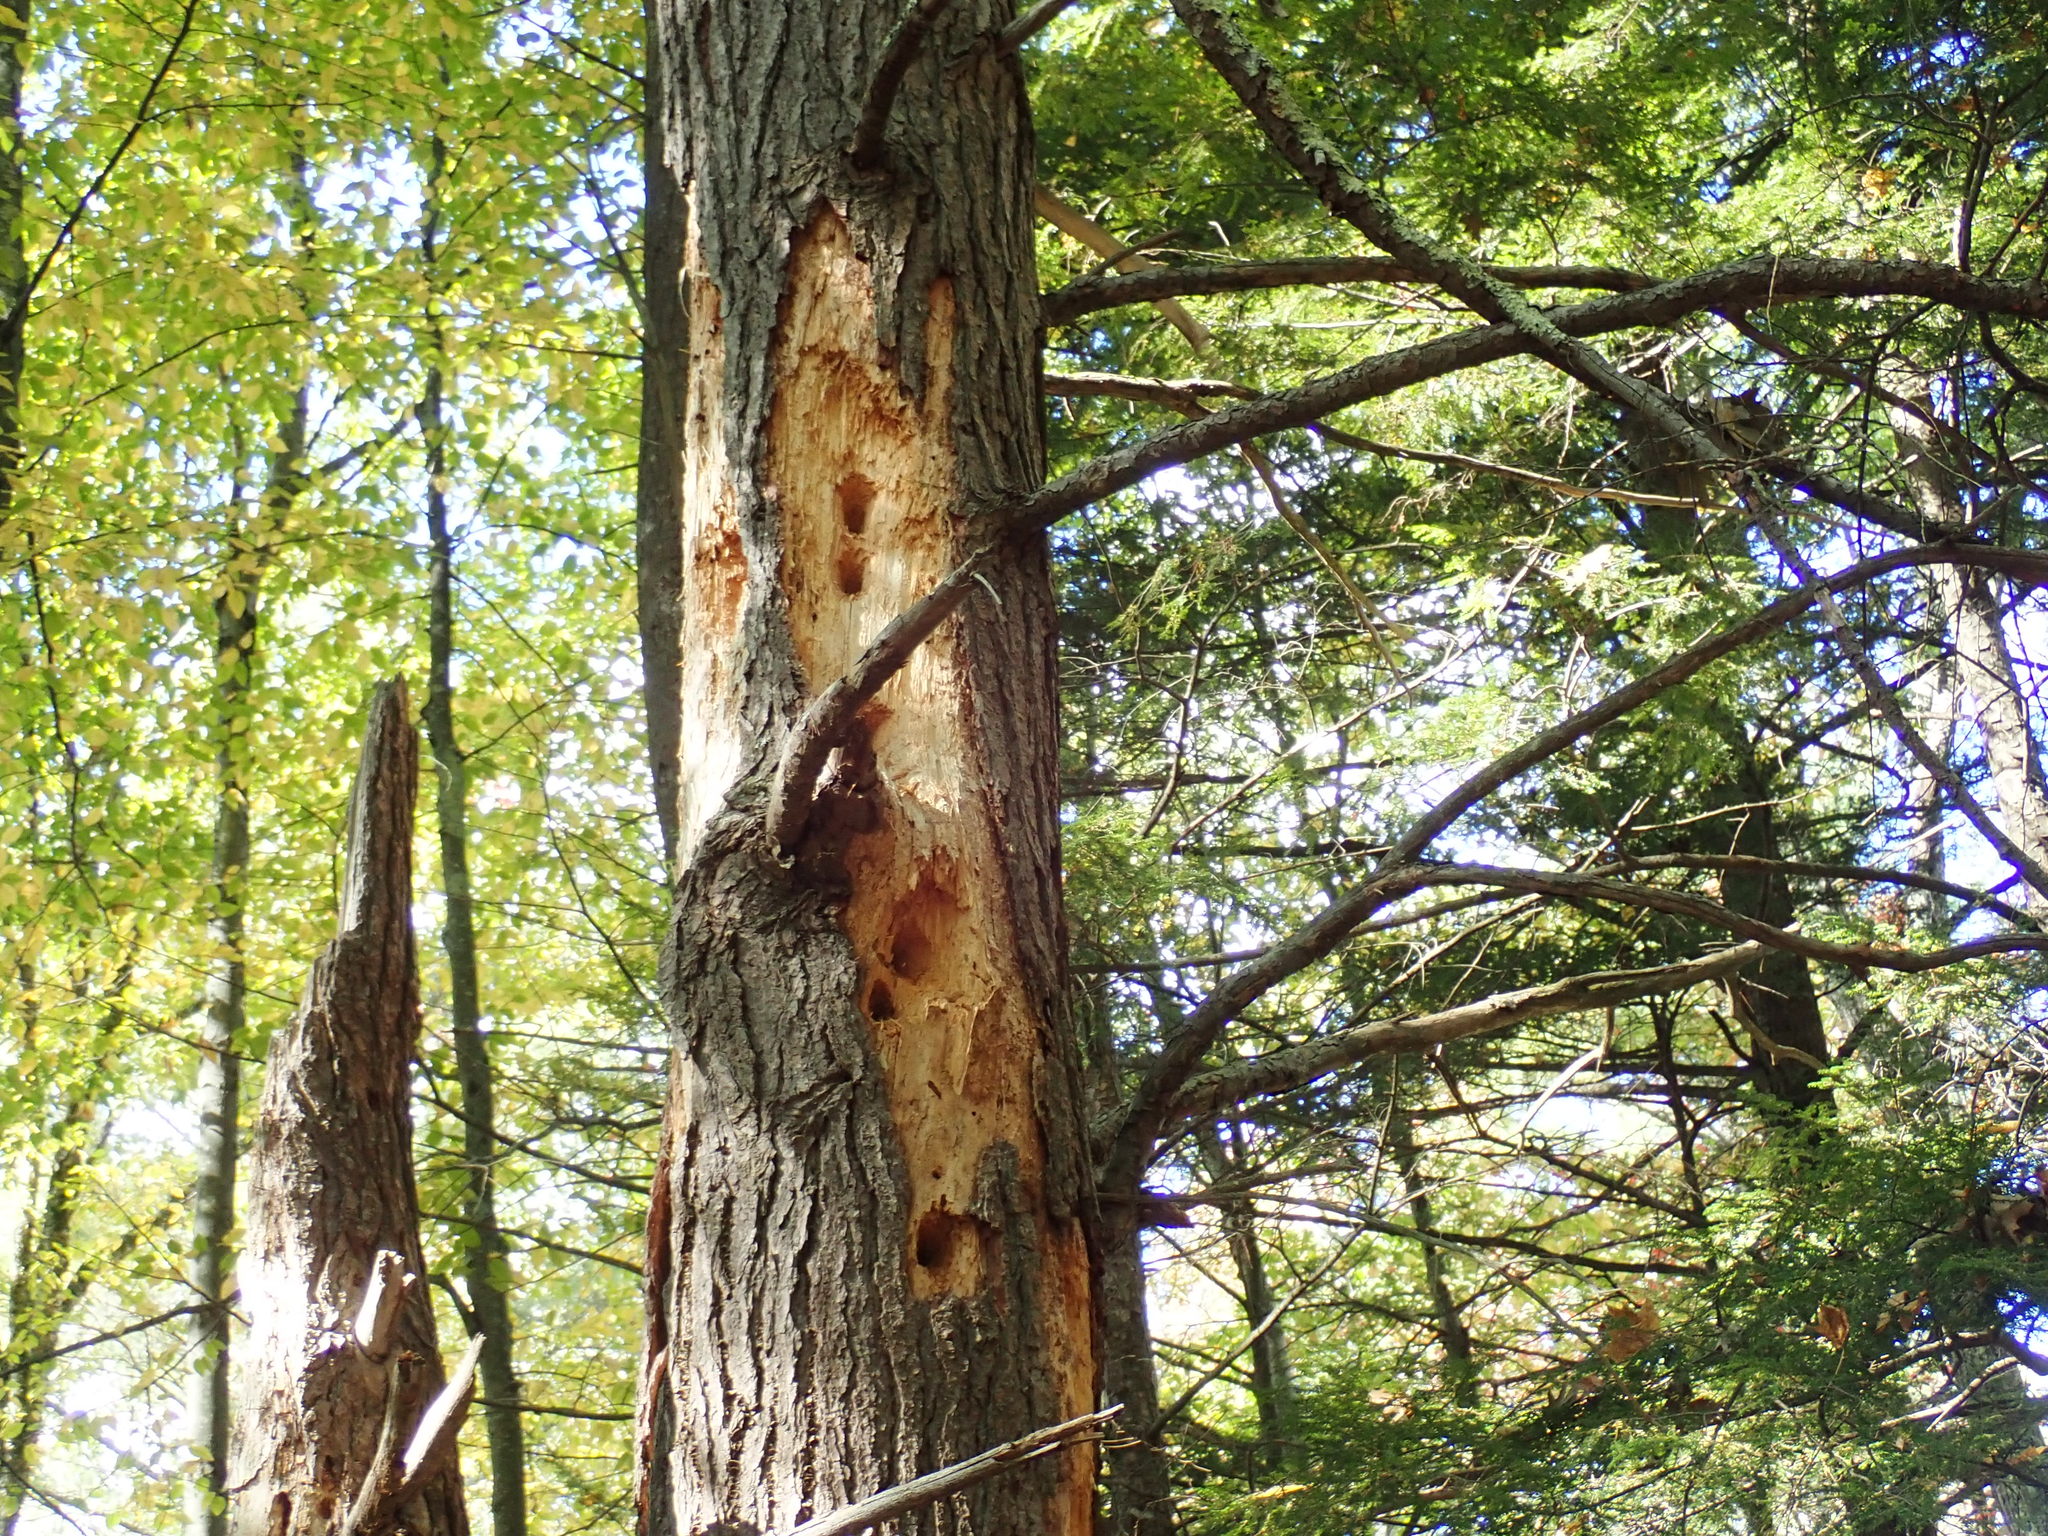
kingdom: Animalia
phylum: Chordata
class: Aves
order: Piciformes
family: Picidae
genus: Dryocopus
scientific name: Dryocopus pileatus
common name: Pileated woodpecker
